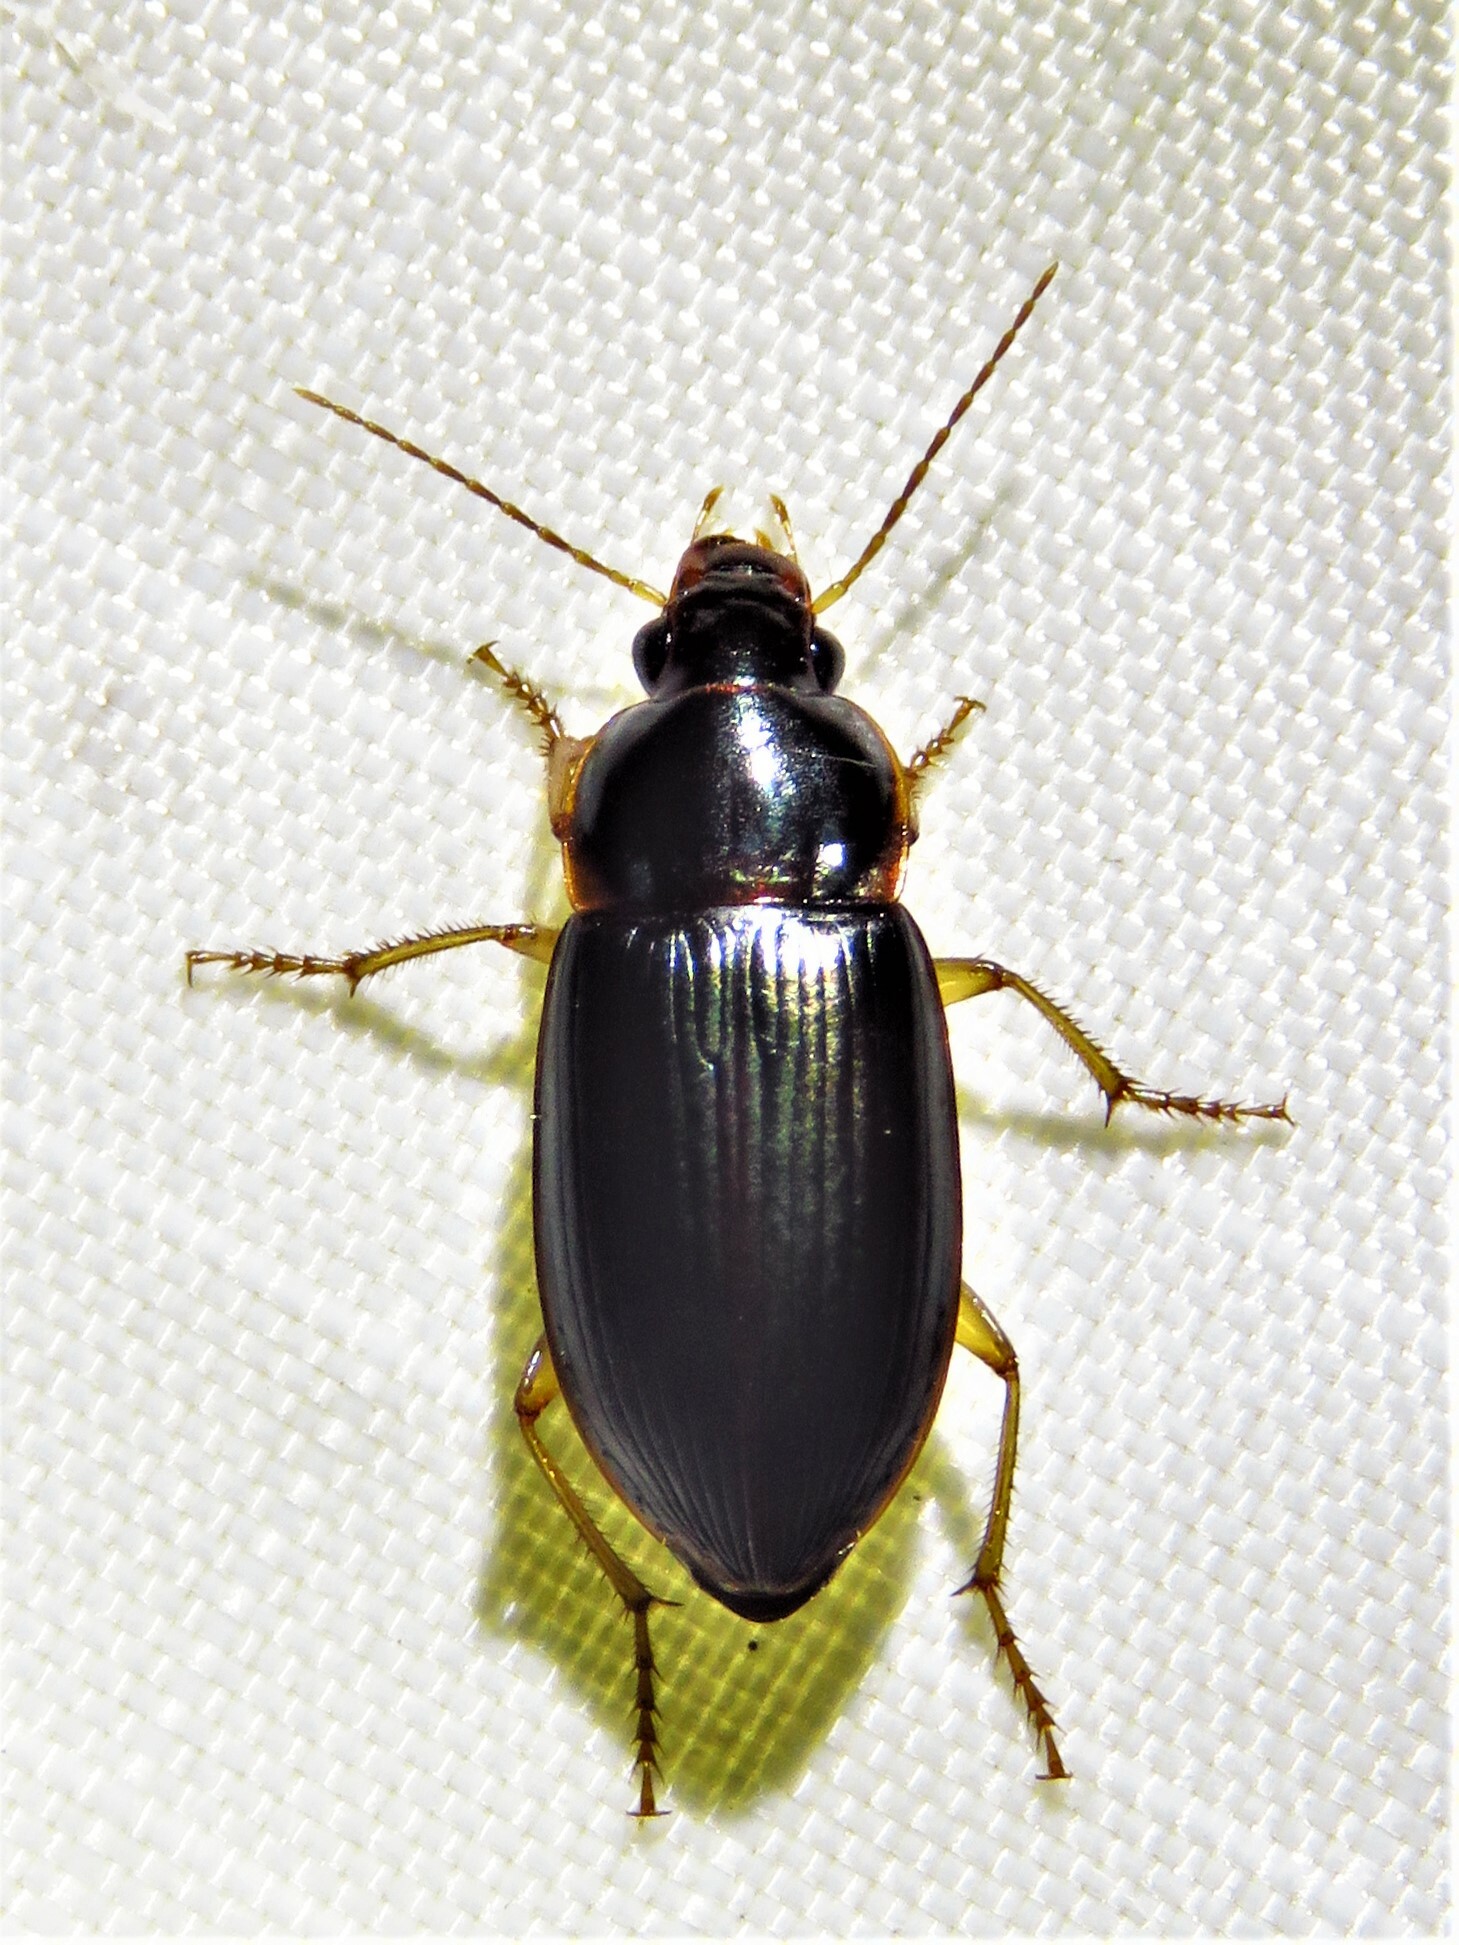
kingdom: Animalia
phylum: Arthropoda
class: Insecta
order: Coleoptera
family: Carabidae
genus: Notiobia
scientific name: Notiobia terminata
